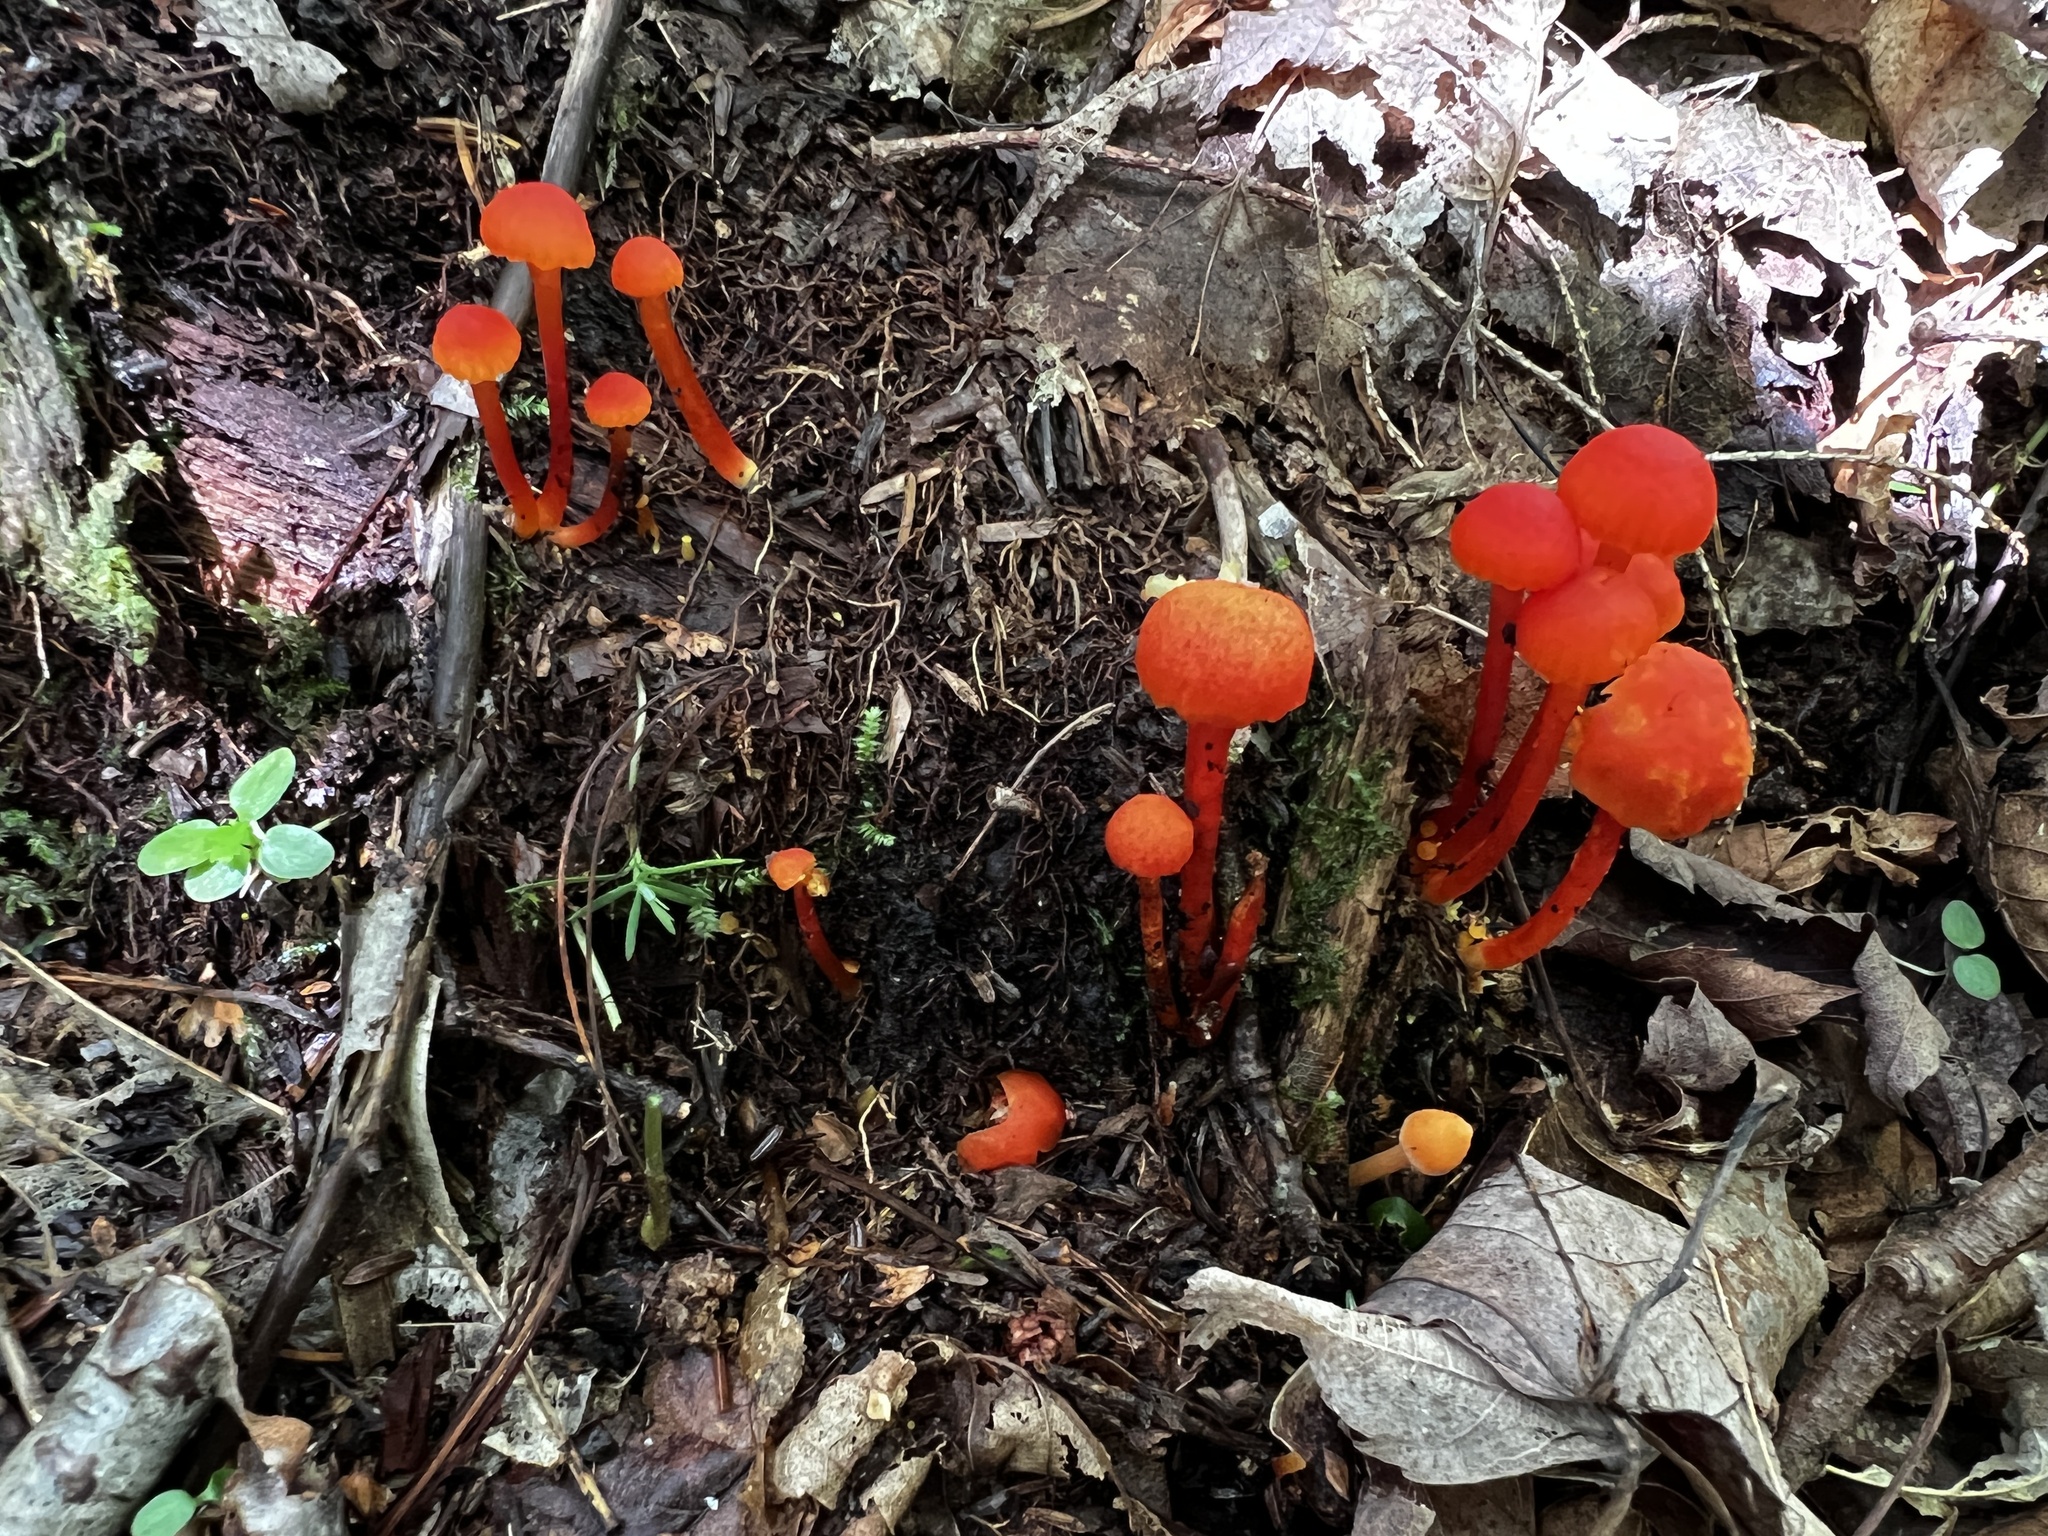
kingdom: Fungi
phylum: Basidiomycota
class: Agaricomycetes
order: Agaricales
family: Hygrophoraceae
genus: Hygrocybe
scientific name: Hygrocybe cantharellus
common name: Goblet waxcap
